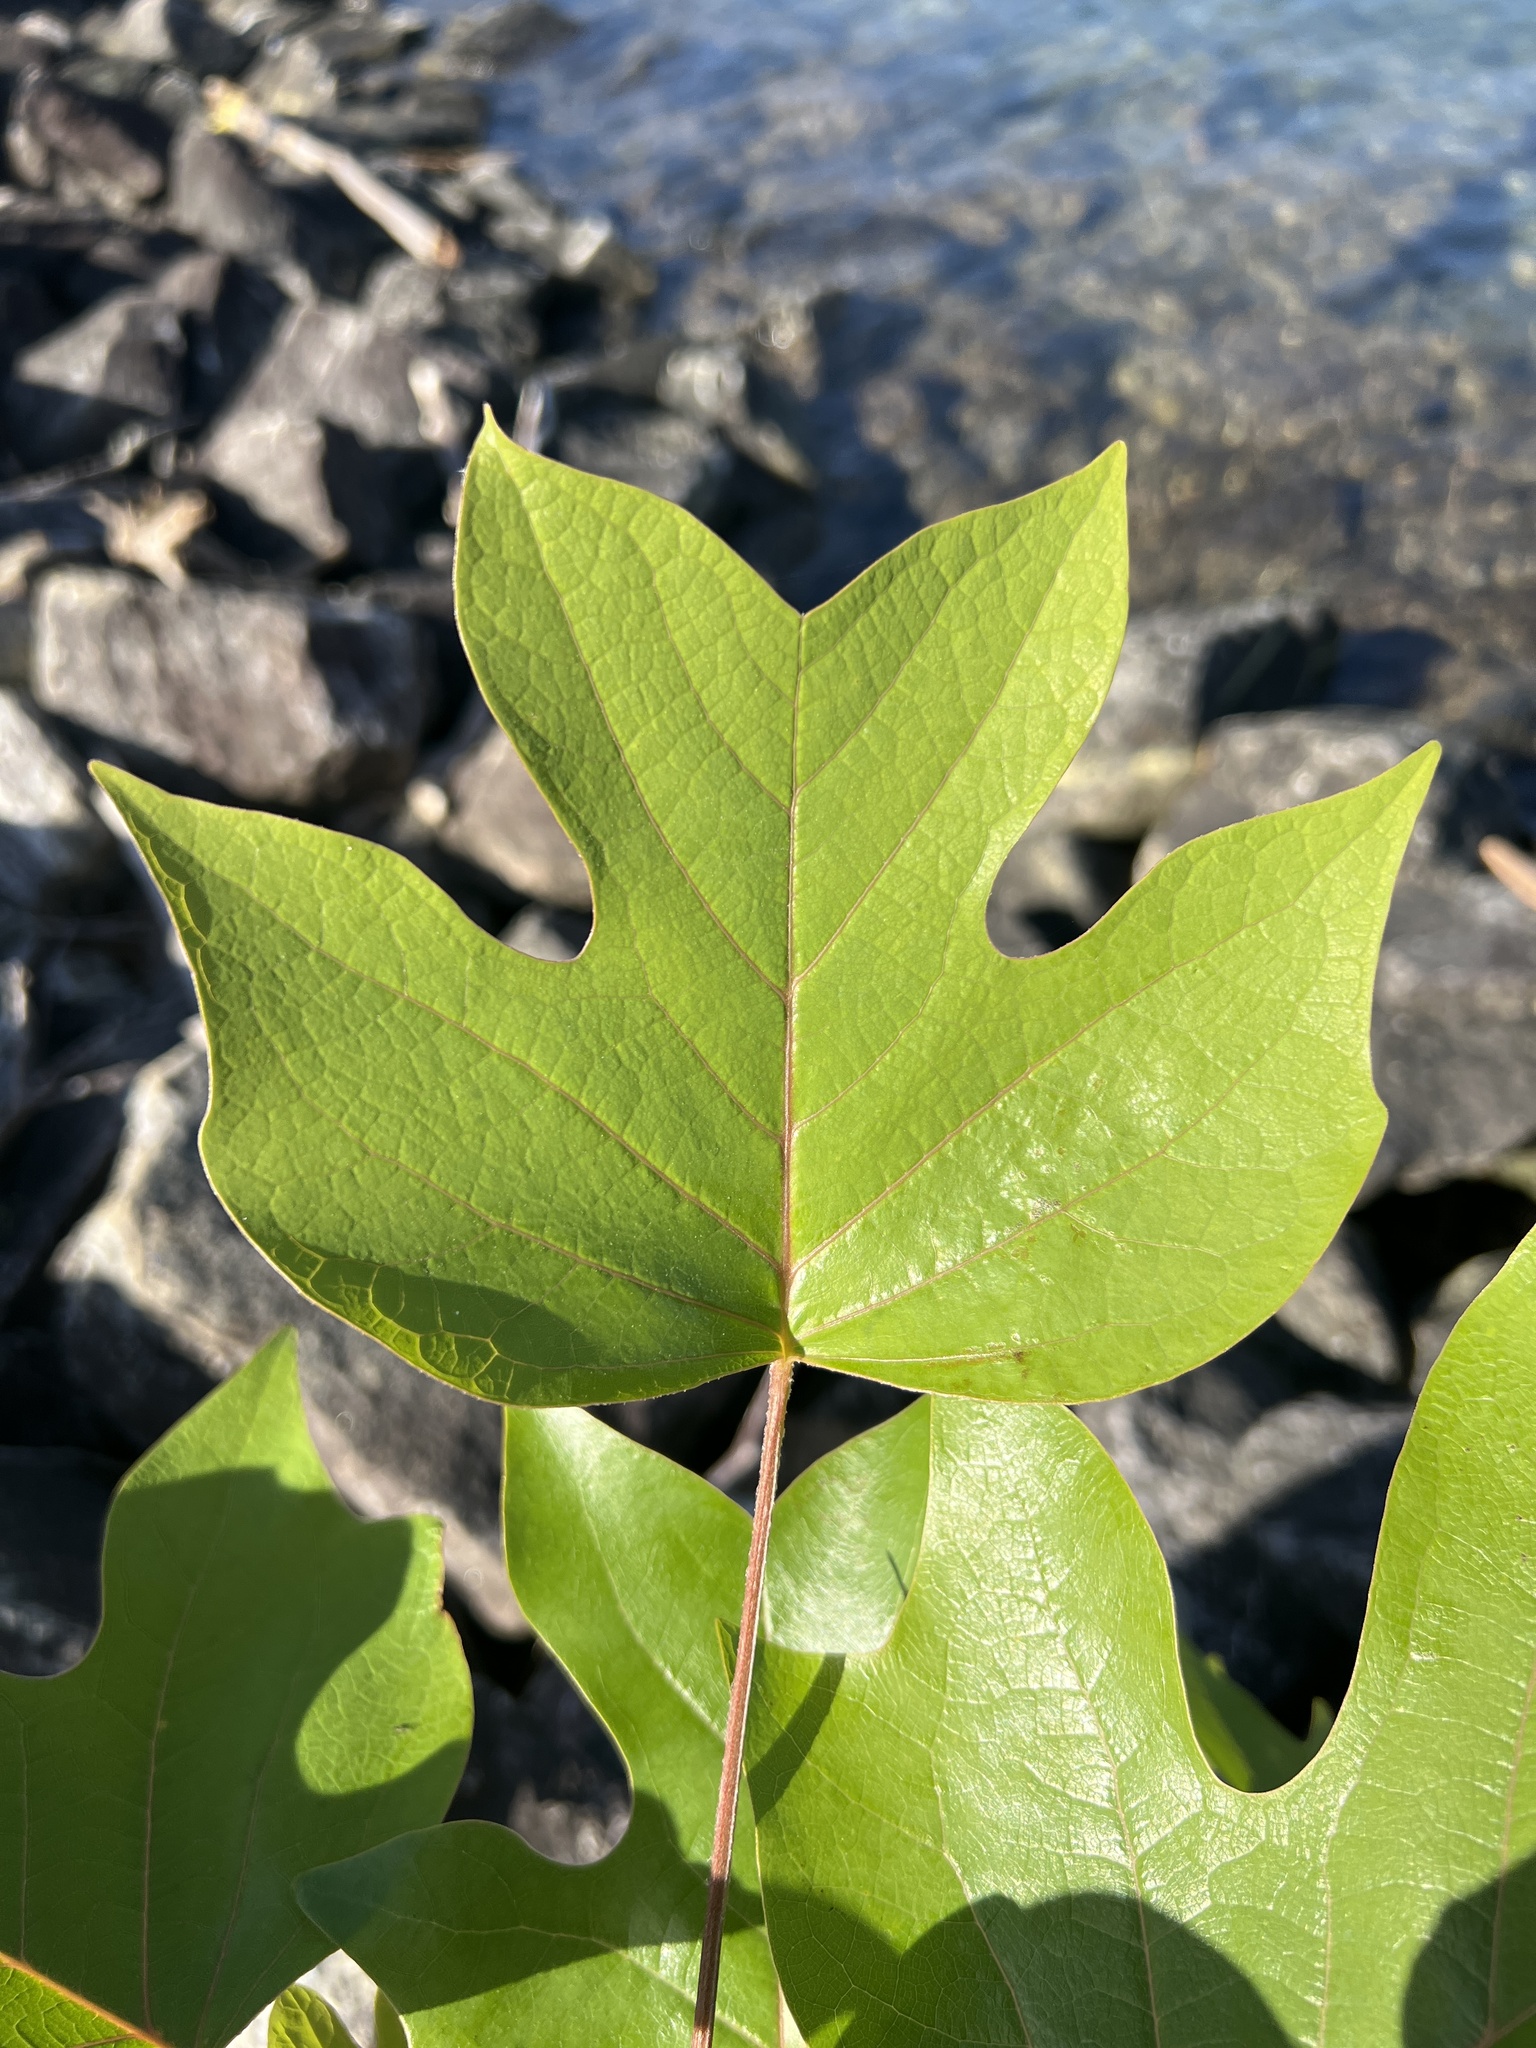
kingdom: Plantae
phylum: Tracheophyta
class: Magnoliopsida
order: Magnoliales
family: Magnoliaceae
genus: Liriodendron
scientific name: Liriodendron tulipifera
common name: Tulip tree
